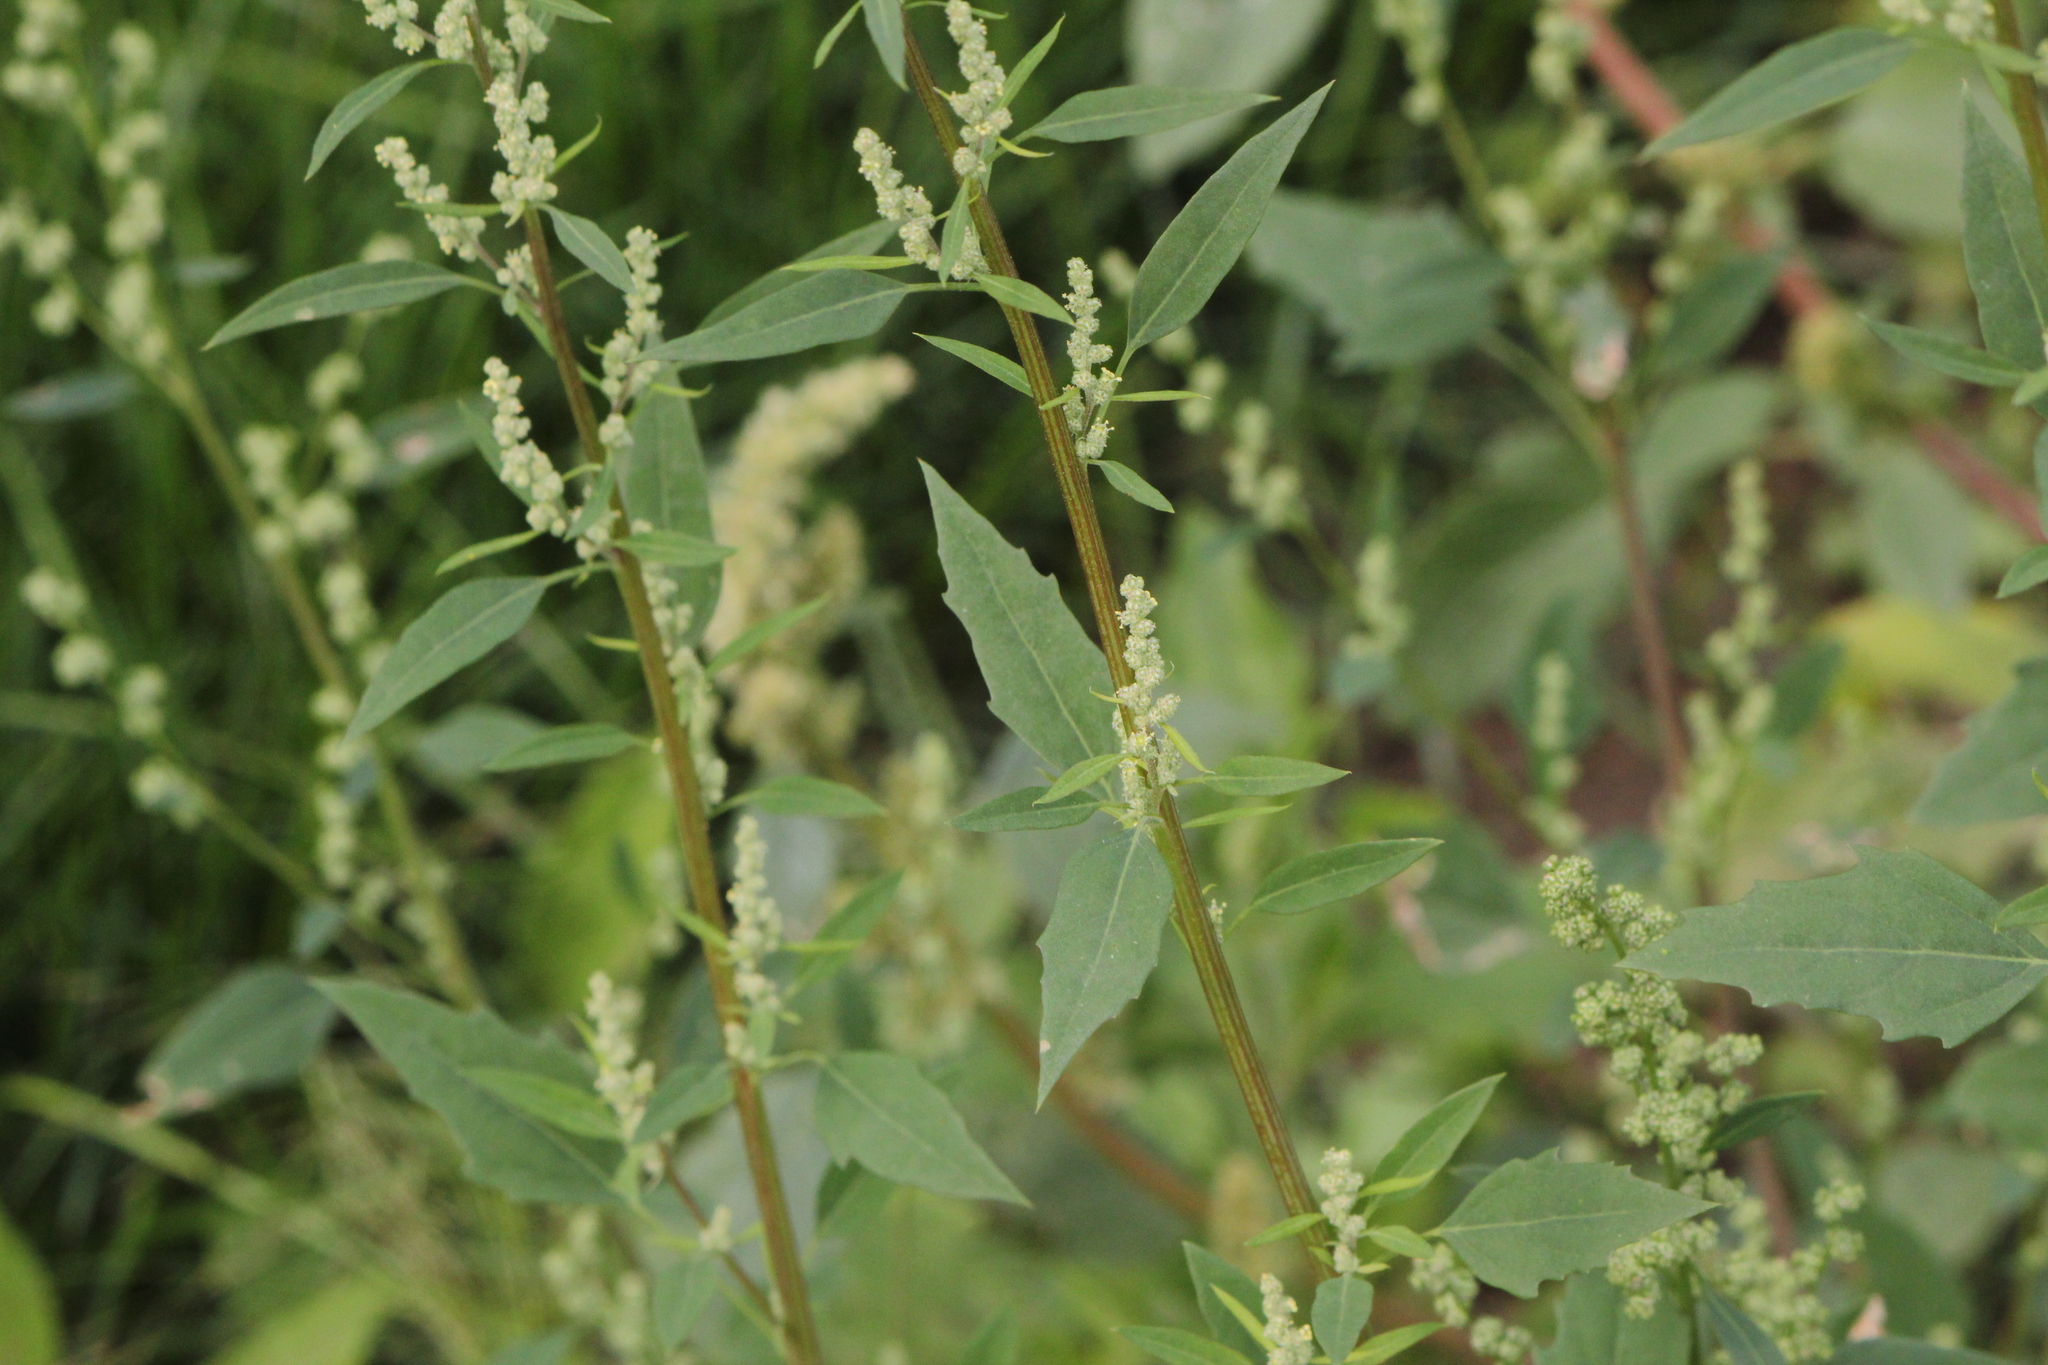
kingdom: Plantae
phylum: Tracheophyta
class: Magnoliopsida
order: Caryophyllales
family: Amaranthaceae
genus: Chenopodium
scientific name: Chenopodium album
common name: Fat-hen
